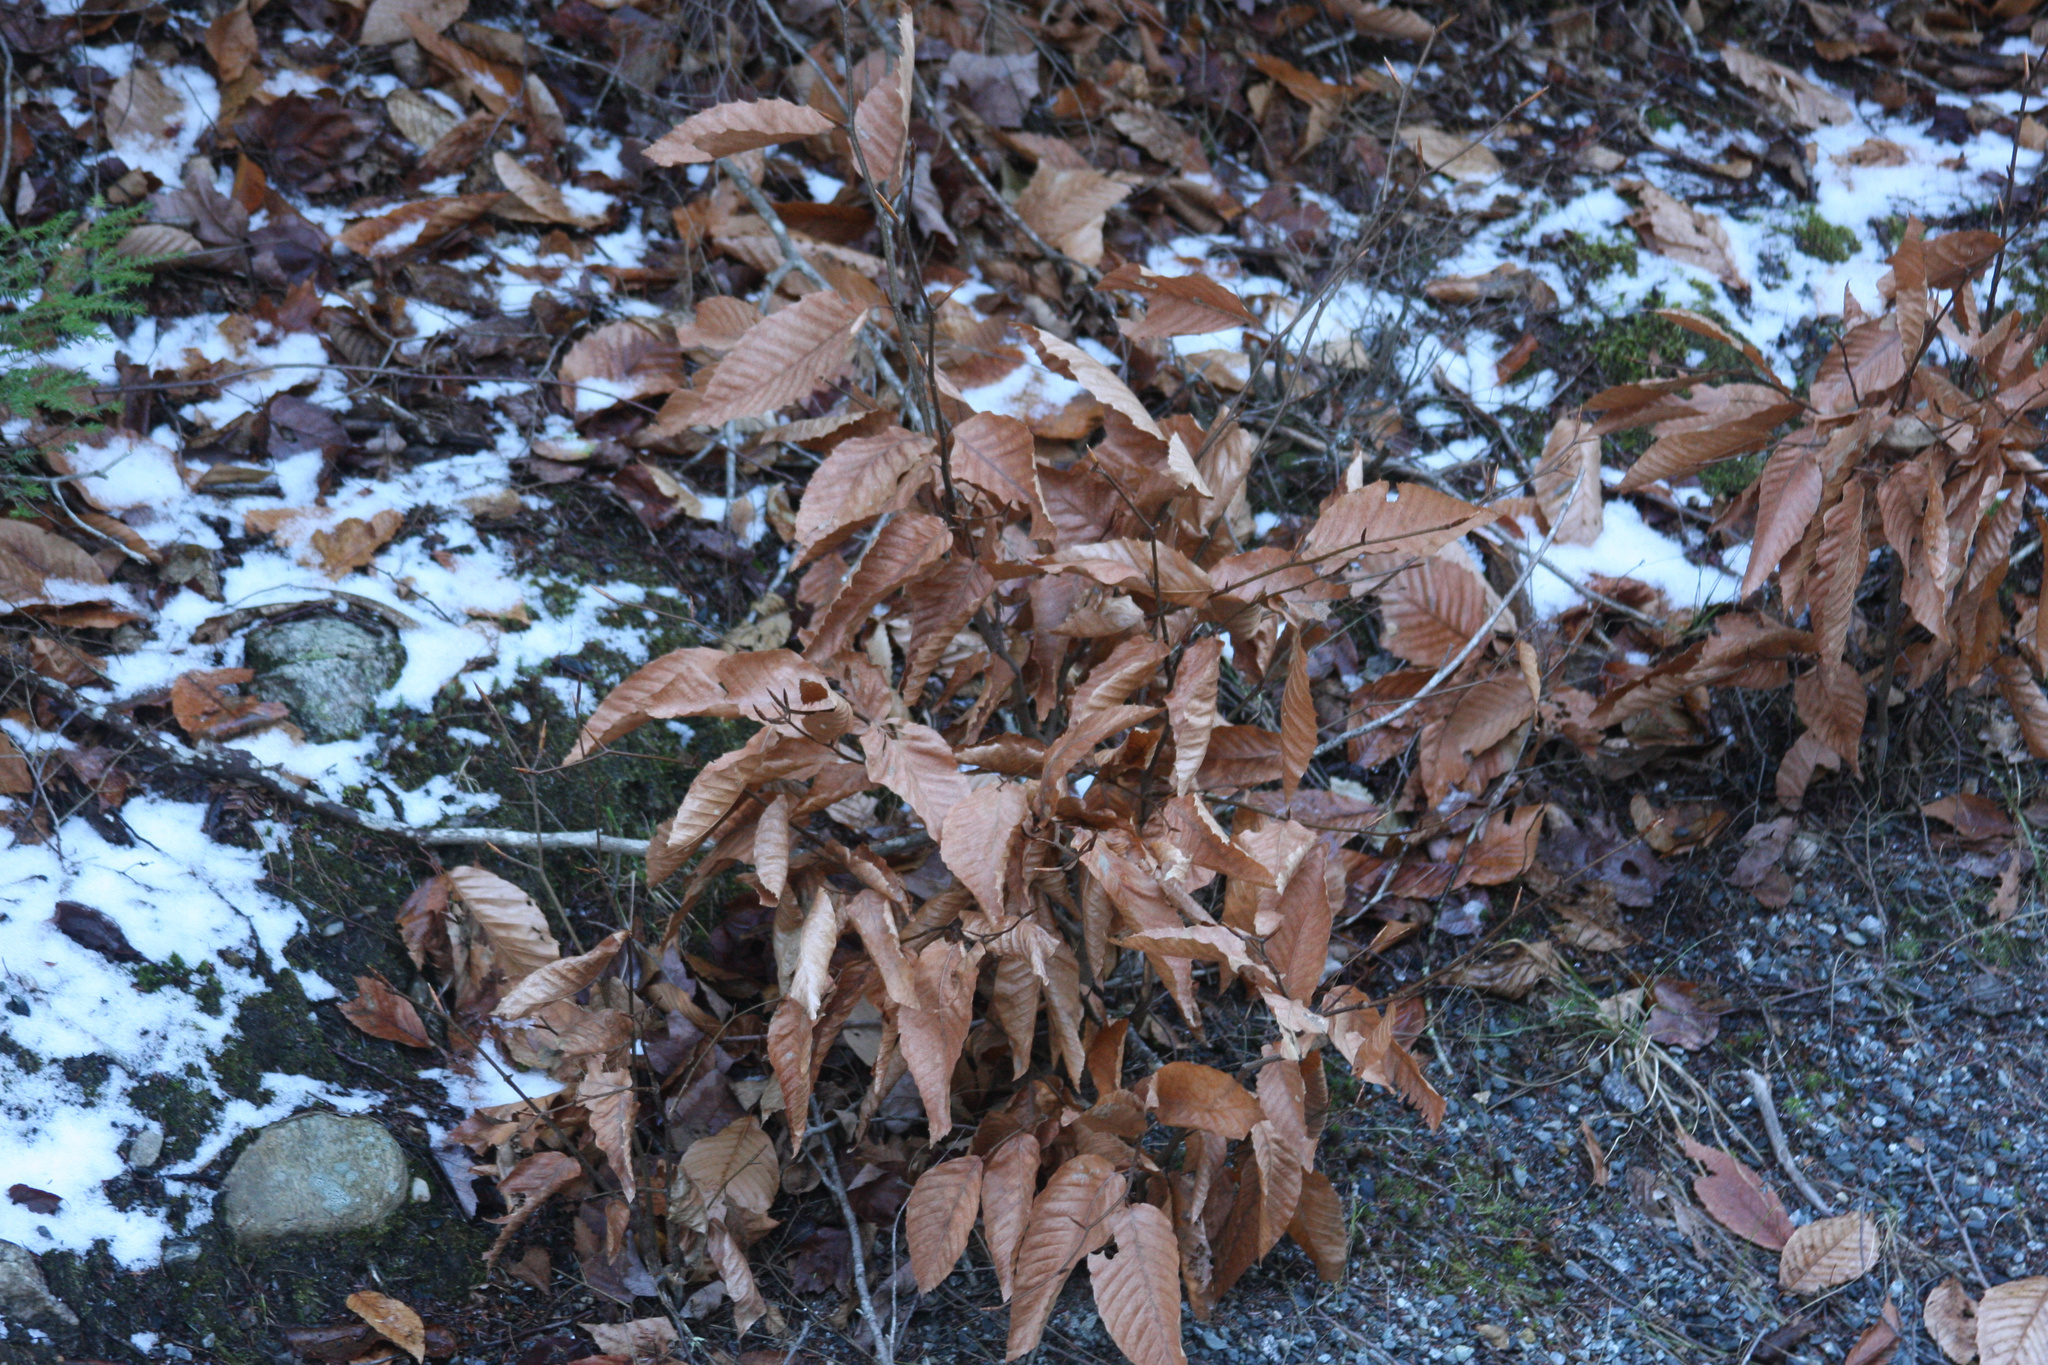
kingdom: Plantae
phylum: Tracheophyta
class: Magnoliopsida
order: Fagales
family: Fagaceae
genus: Fagus
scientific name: Fagus grandifolia
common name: American beech
